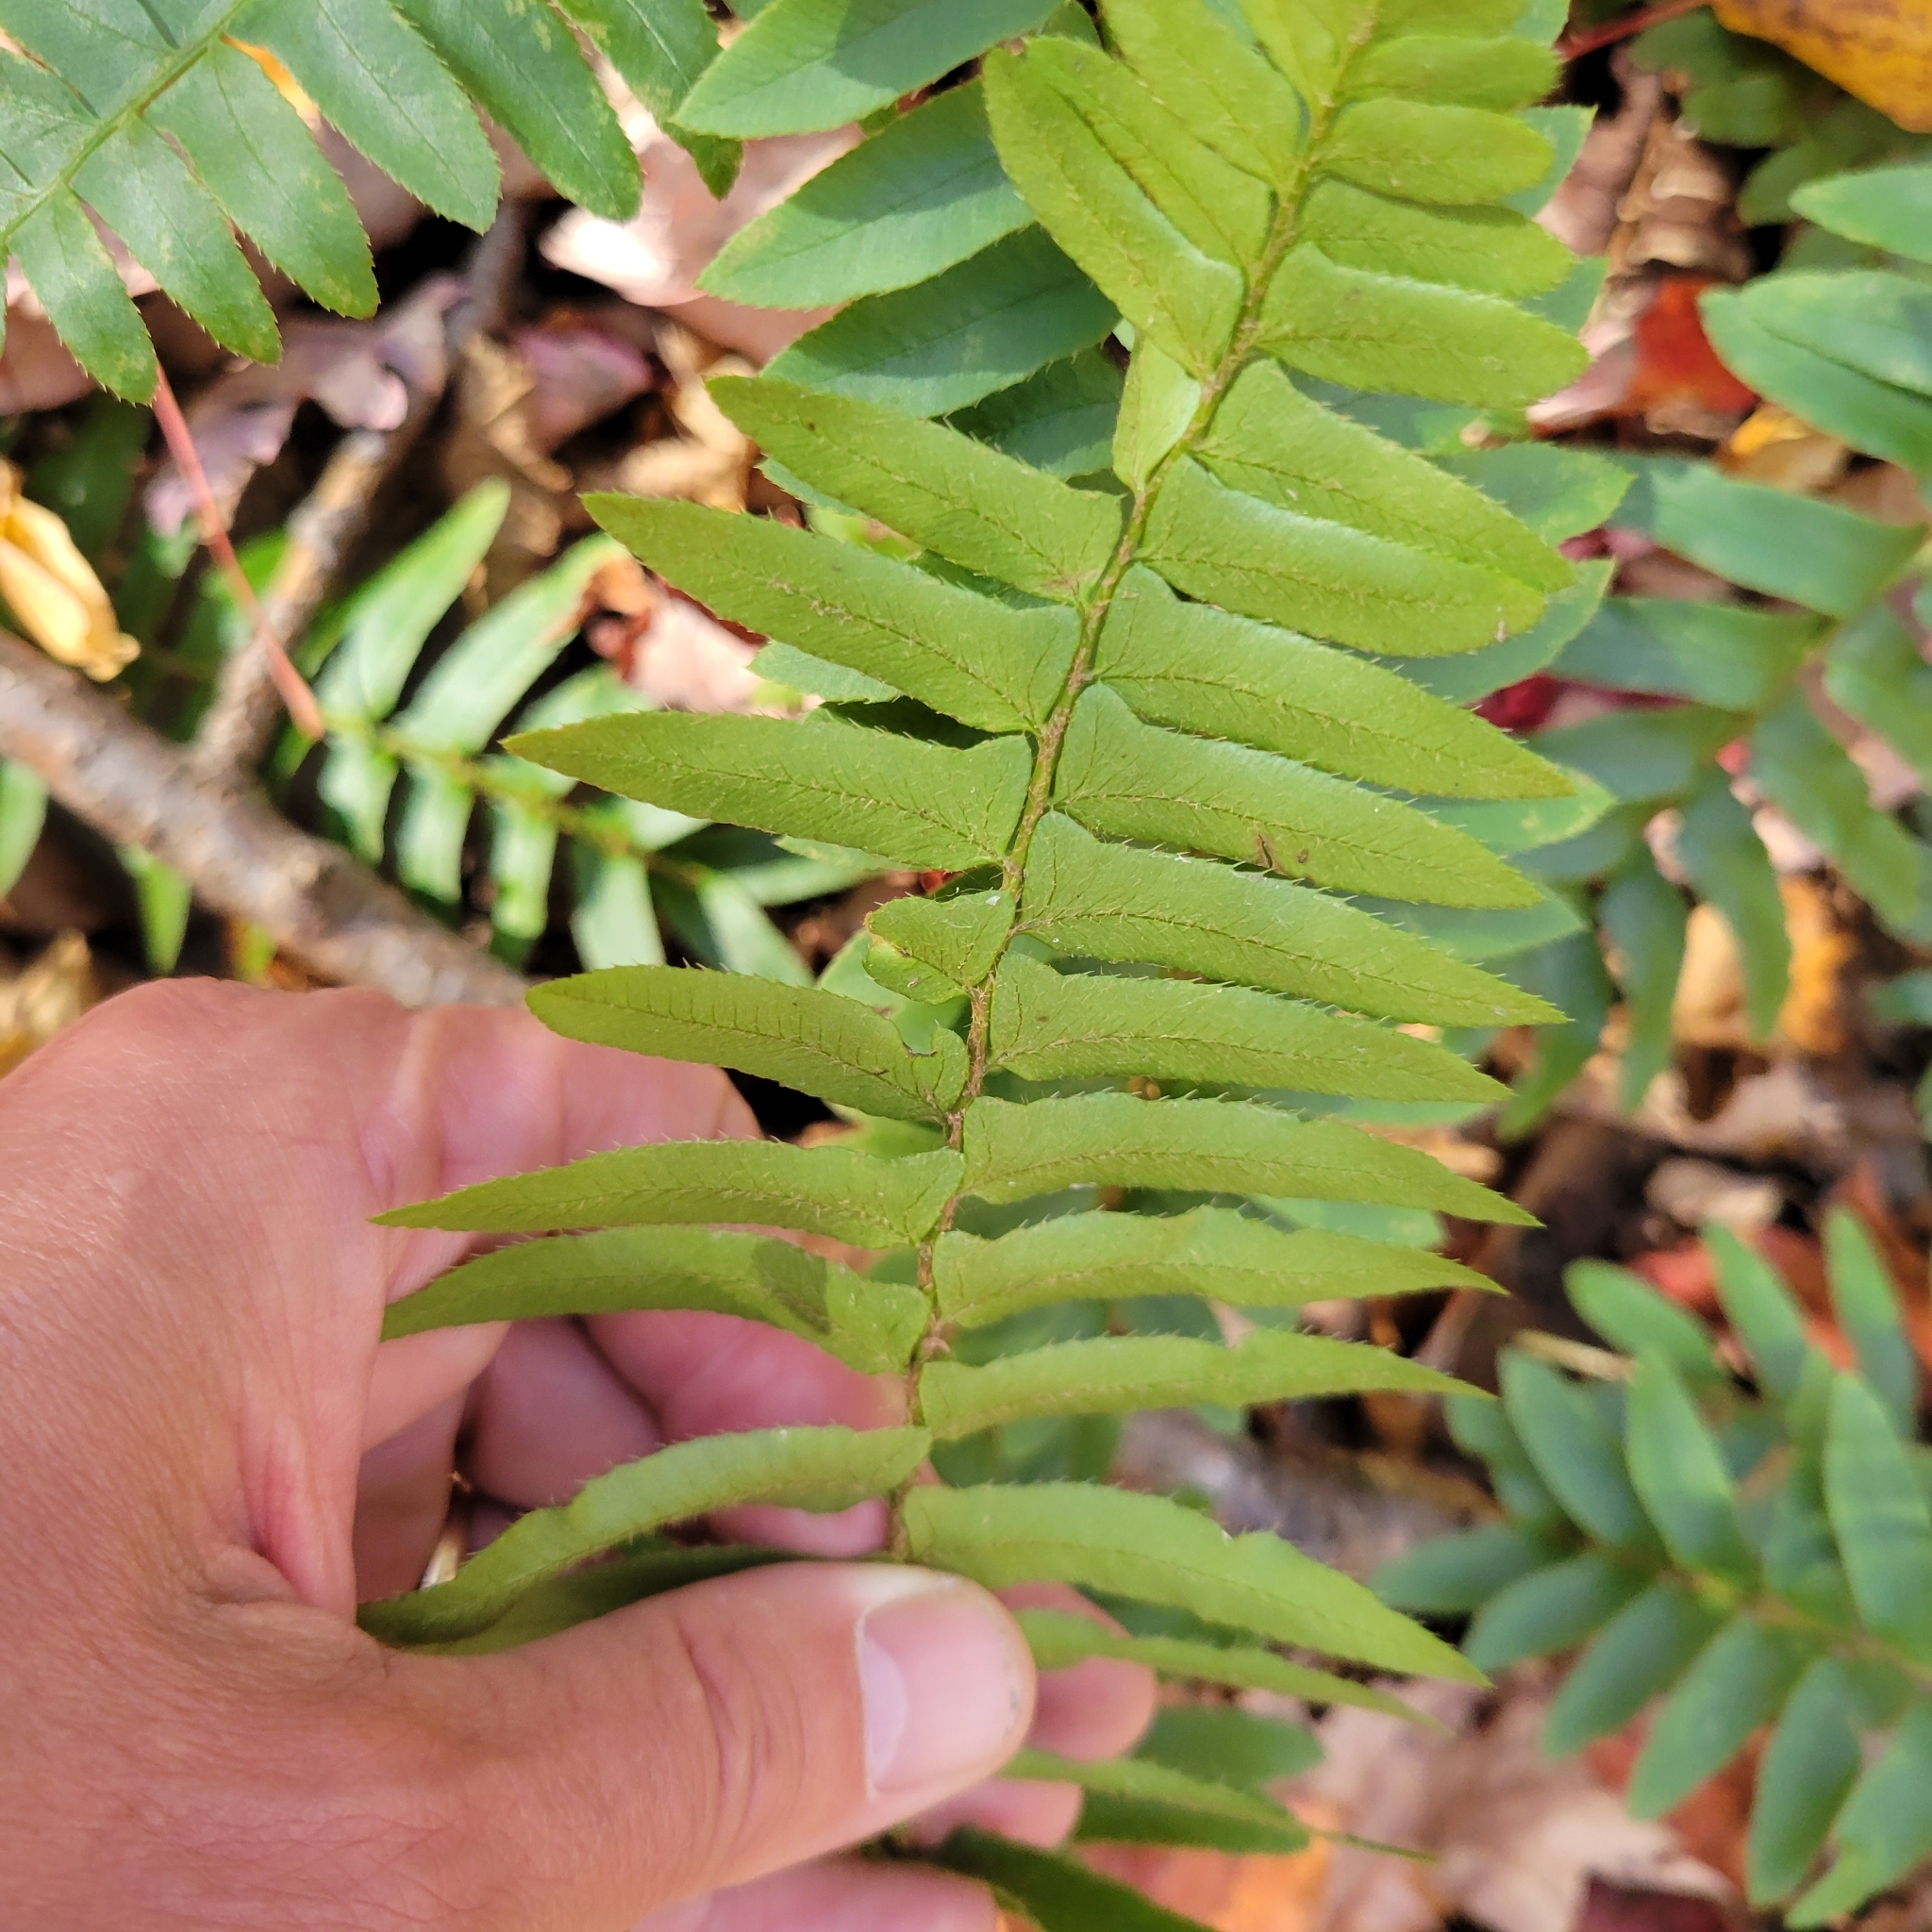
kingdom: Plantae
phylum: Tracheophyta
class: Polypodiopsida
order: Polypodiales
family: Dryopteridaceae
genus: Polystichum
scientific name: Polystichum acrostichoides
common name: Christmas fern
